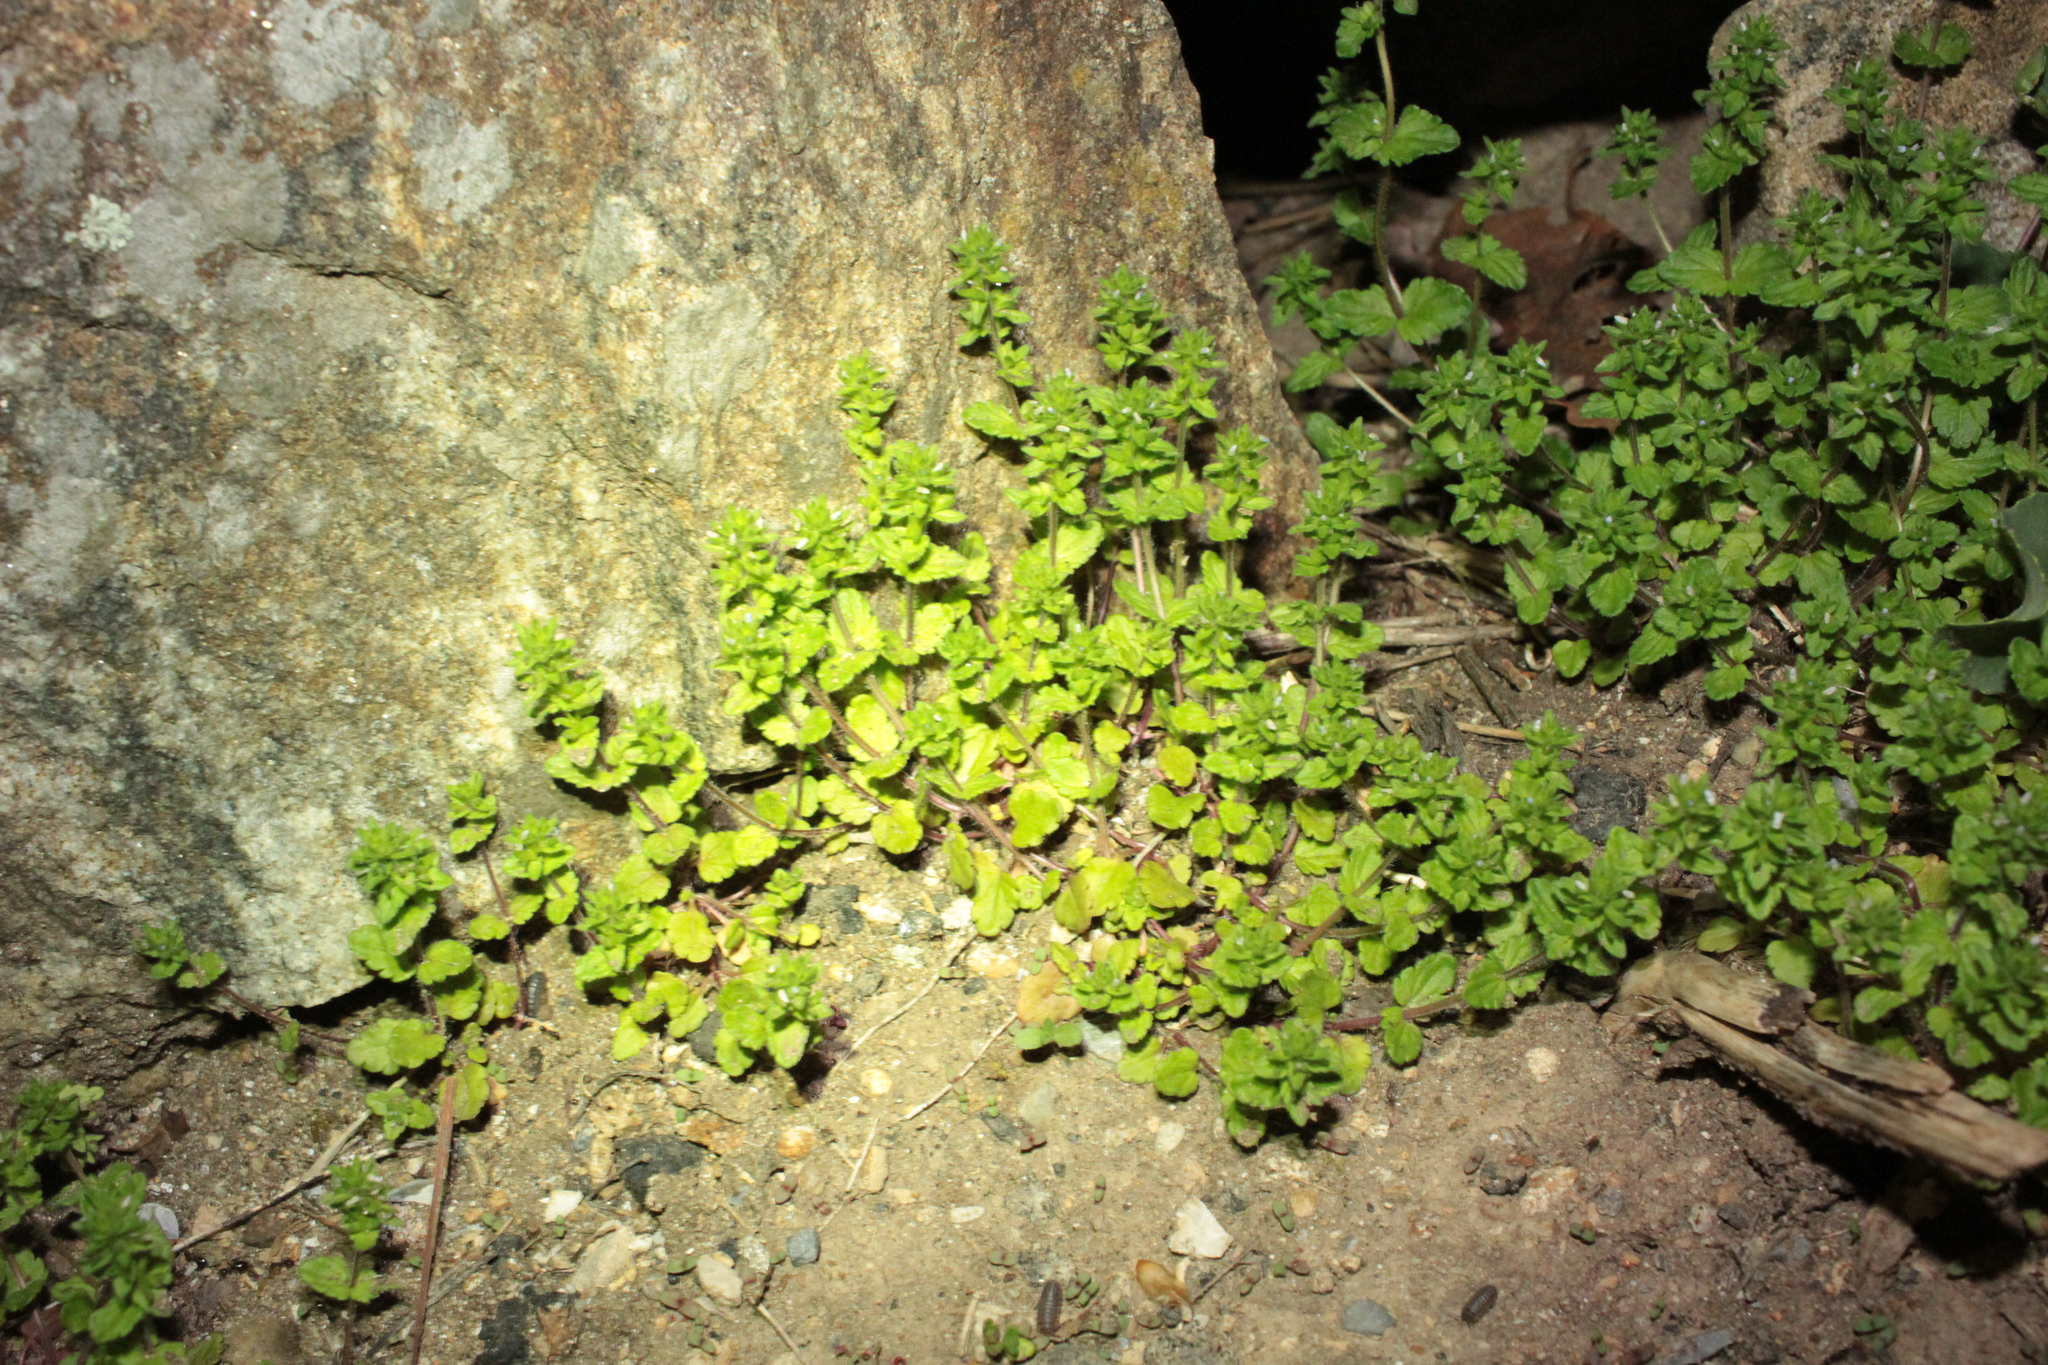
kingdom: Plantae
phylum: Tracheophyta
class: Magnoliopsida
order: Lamiales
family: Plantaginaceae
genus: Veronica
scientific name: Veronica arvensis
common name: Corn speedwell
